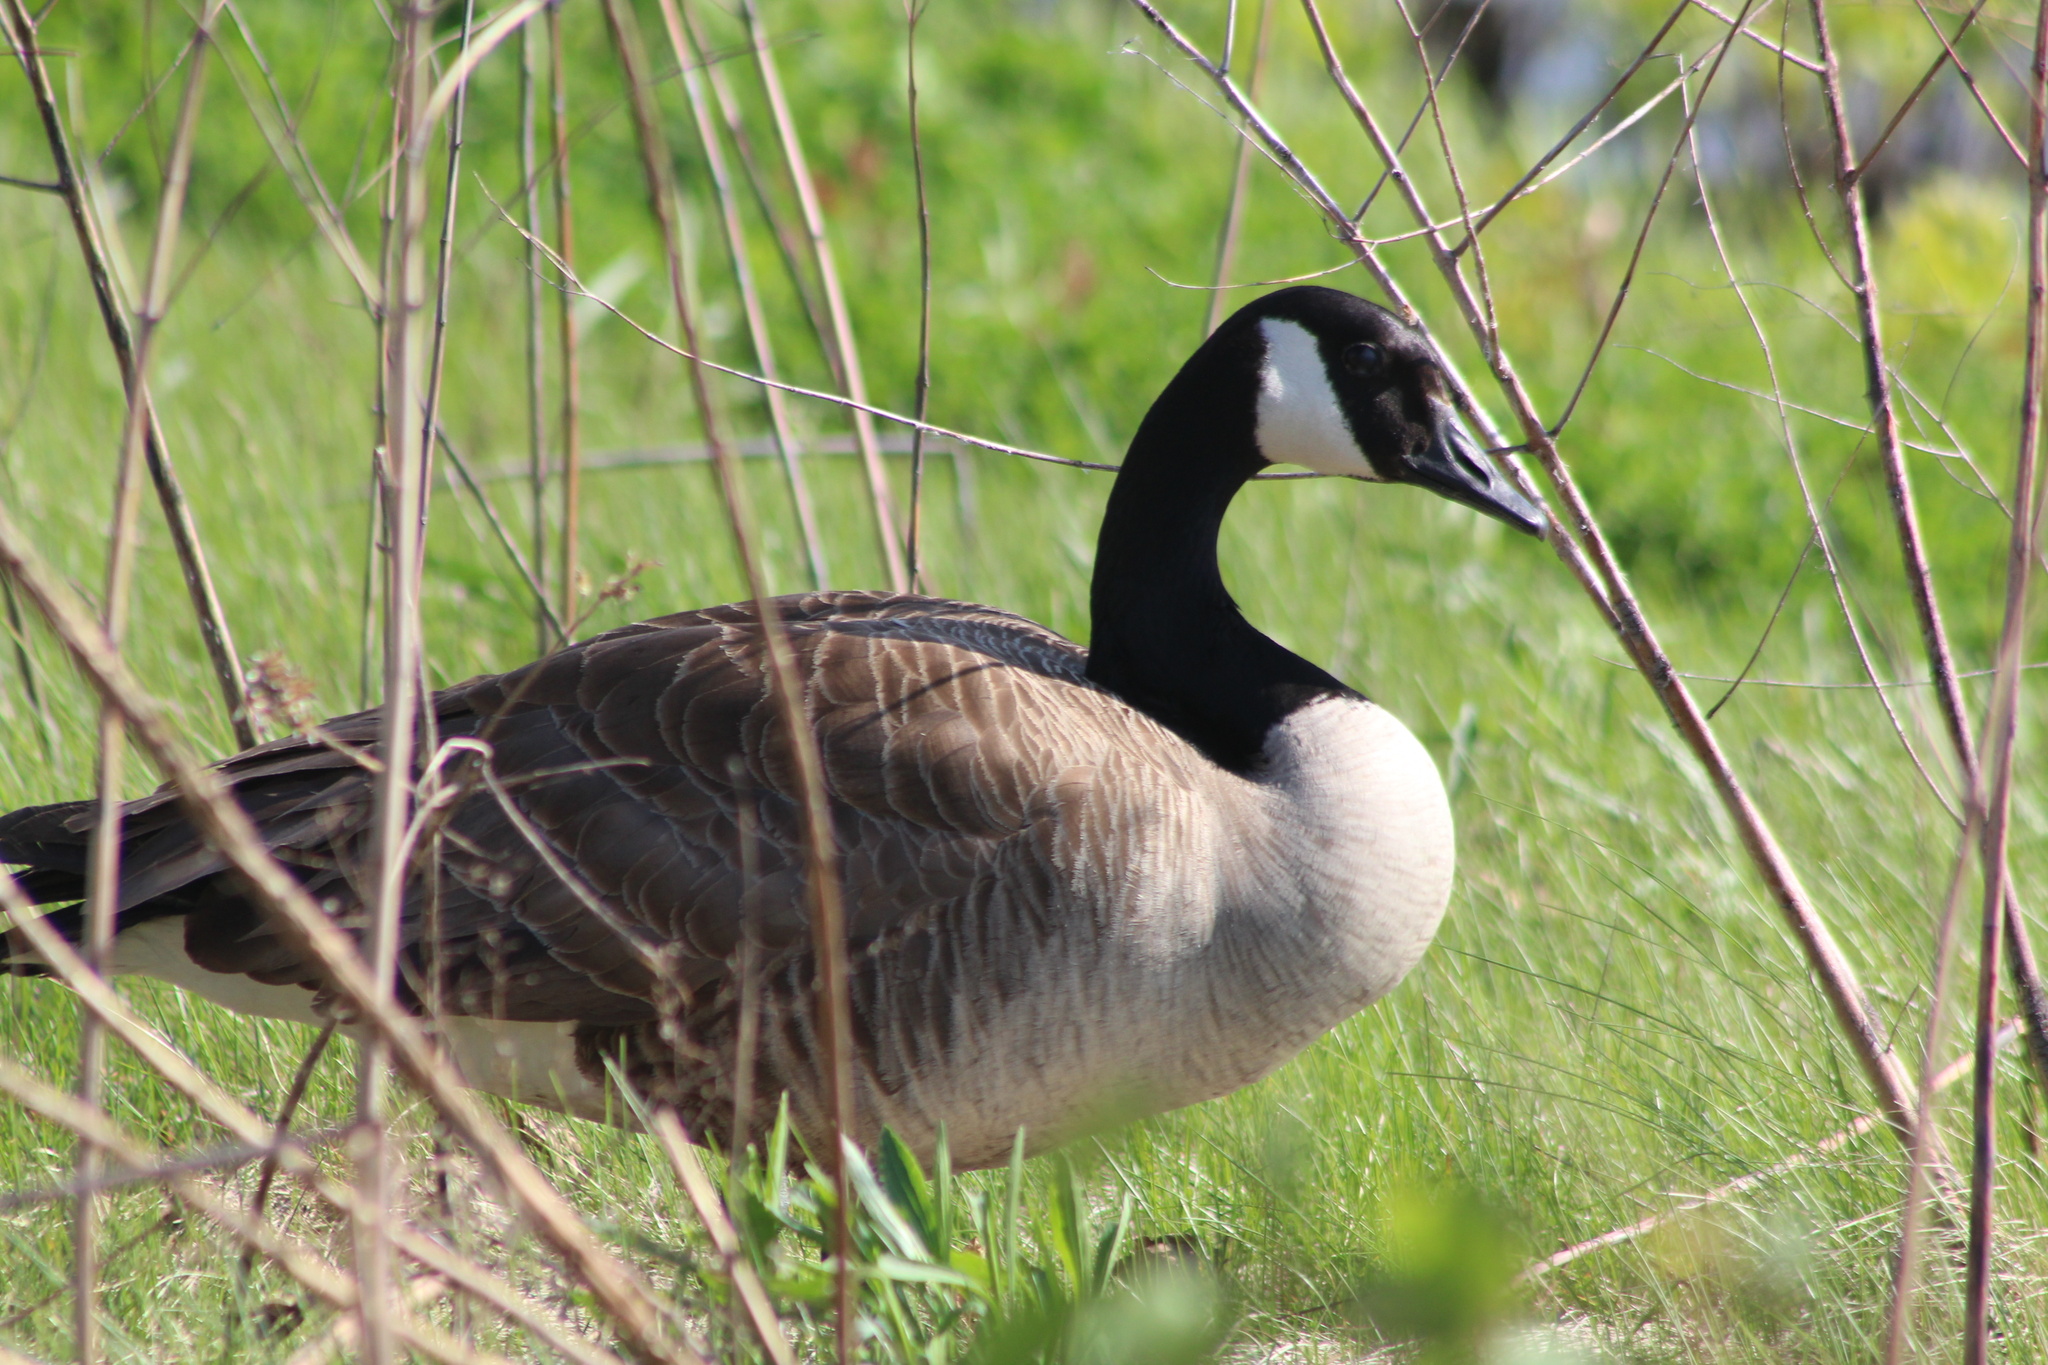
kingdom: Animalia
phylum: Chordata
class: Aves
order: Anseriformes
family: Anatidae
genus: Branta
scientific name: Branta canadensis
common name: Canada goose
